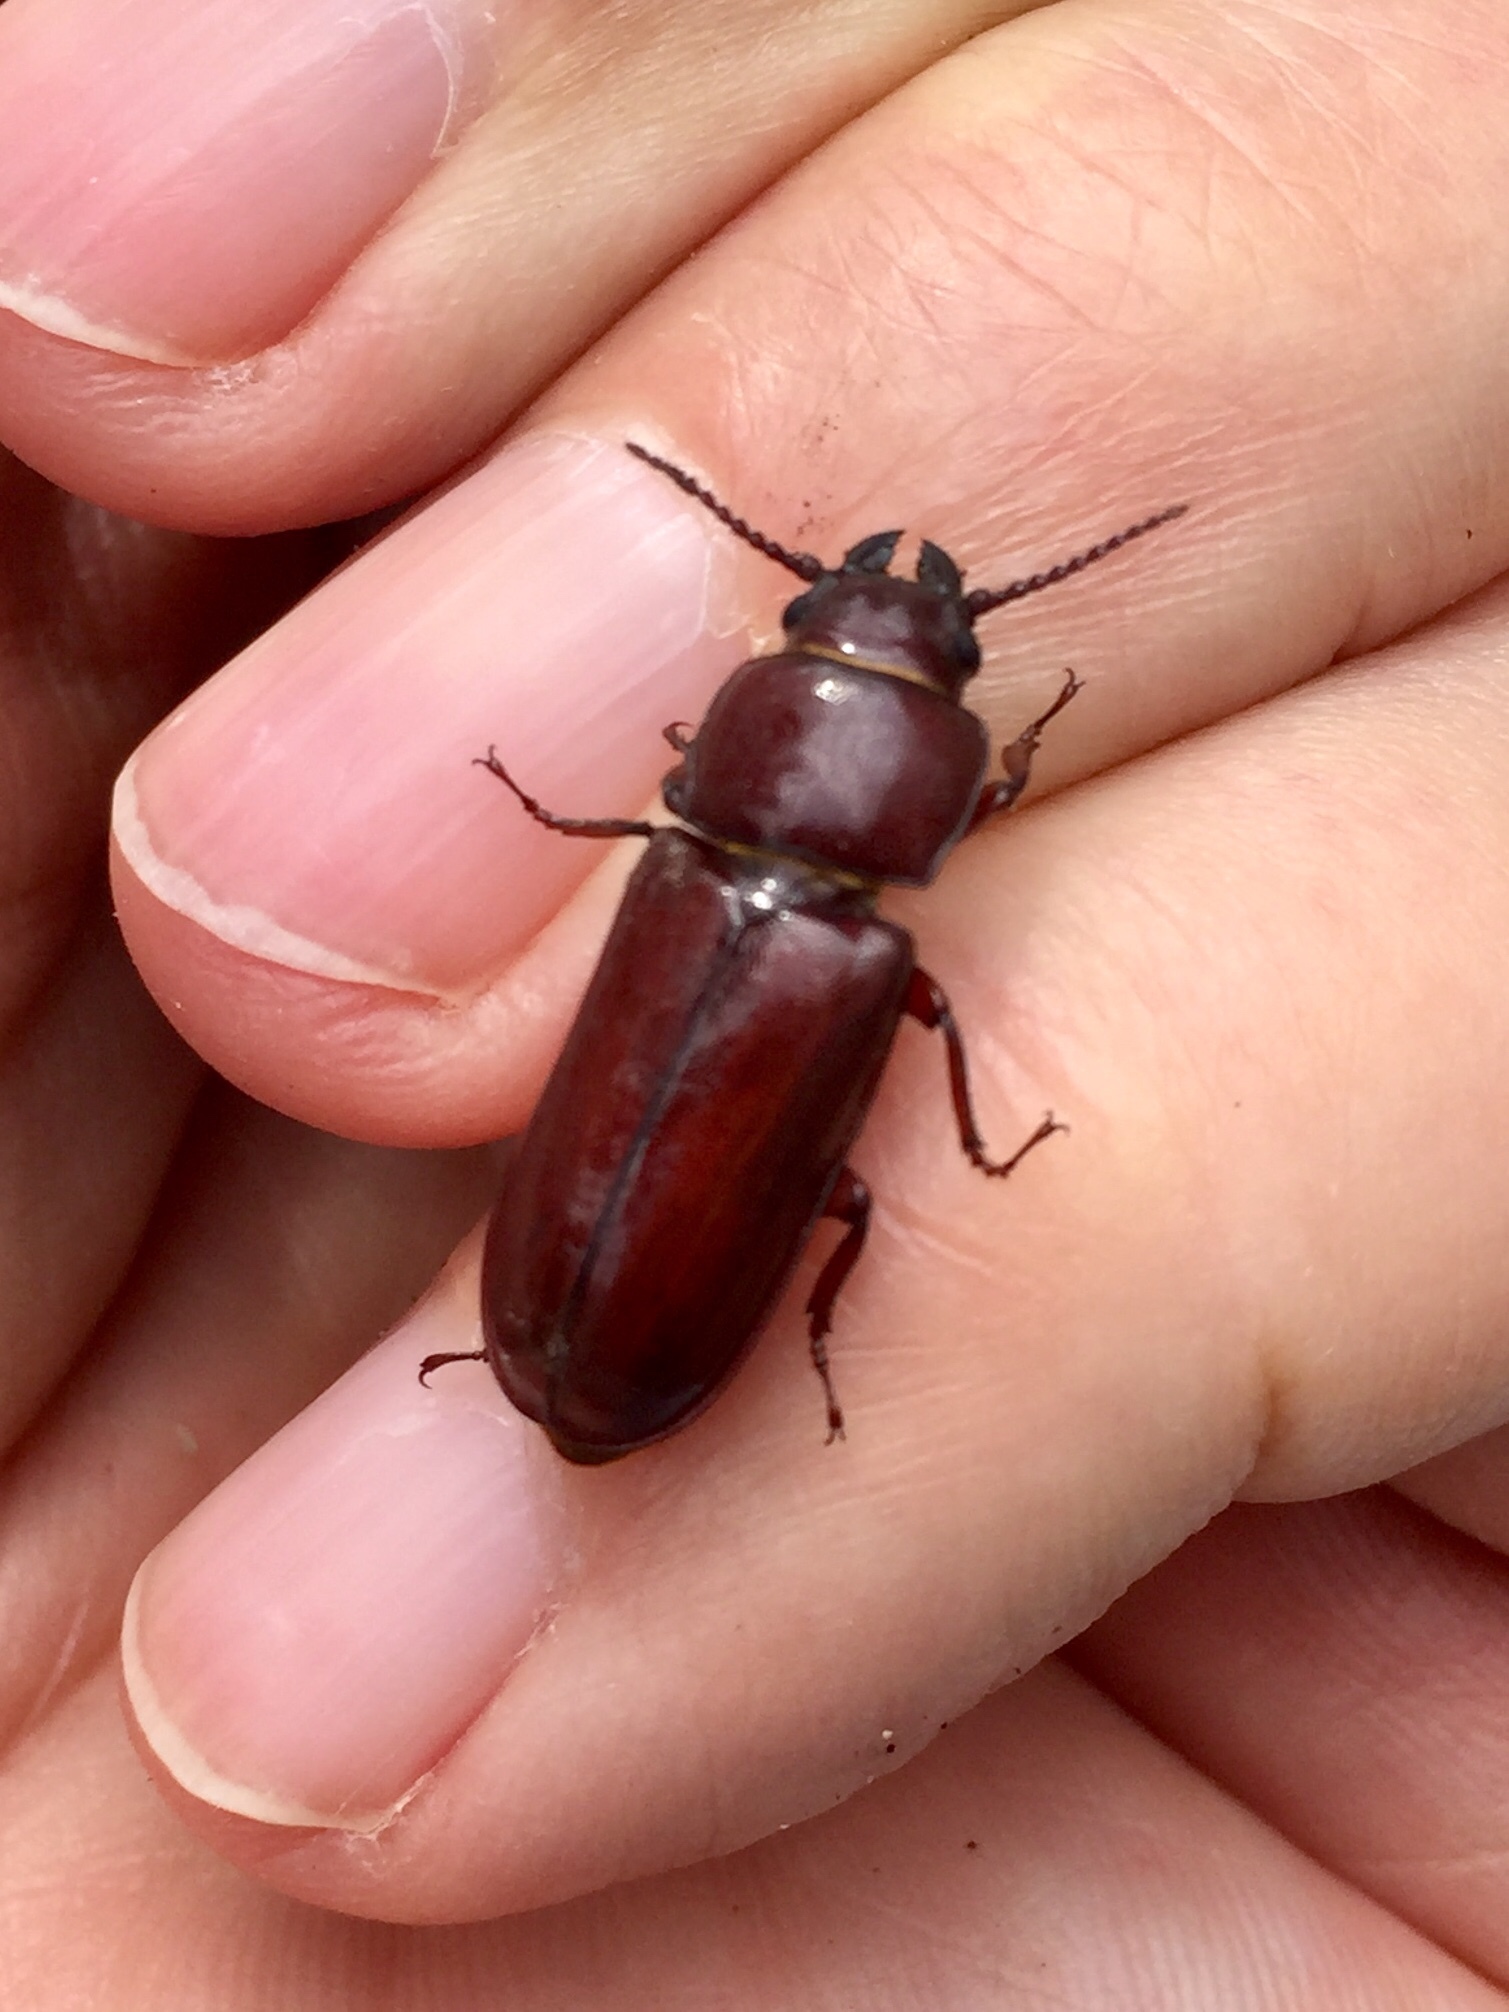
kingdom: Animalia
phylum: Arthropoda
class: Insecta
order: Coleoptera
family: Cerambycidae
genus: Neandra
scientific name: Neandra brunnea
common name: Pole borer
